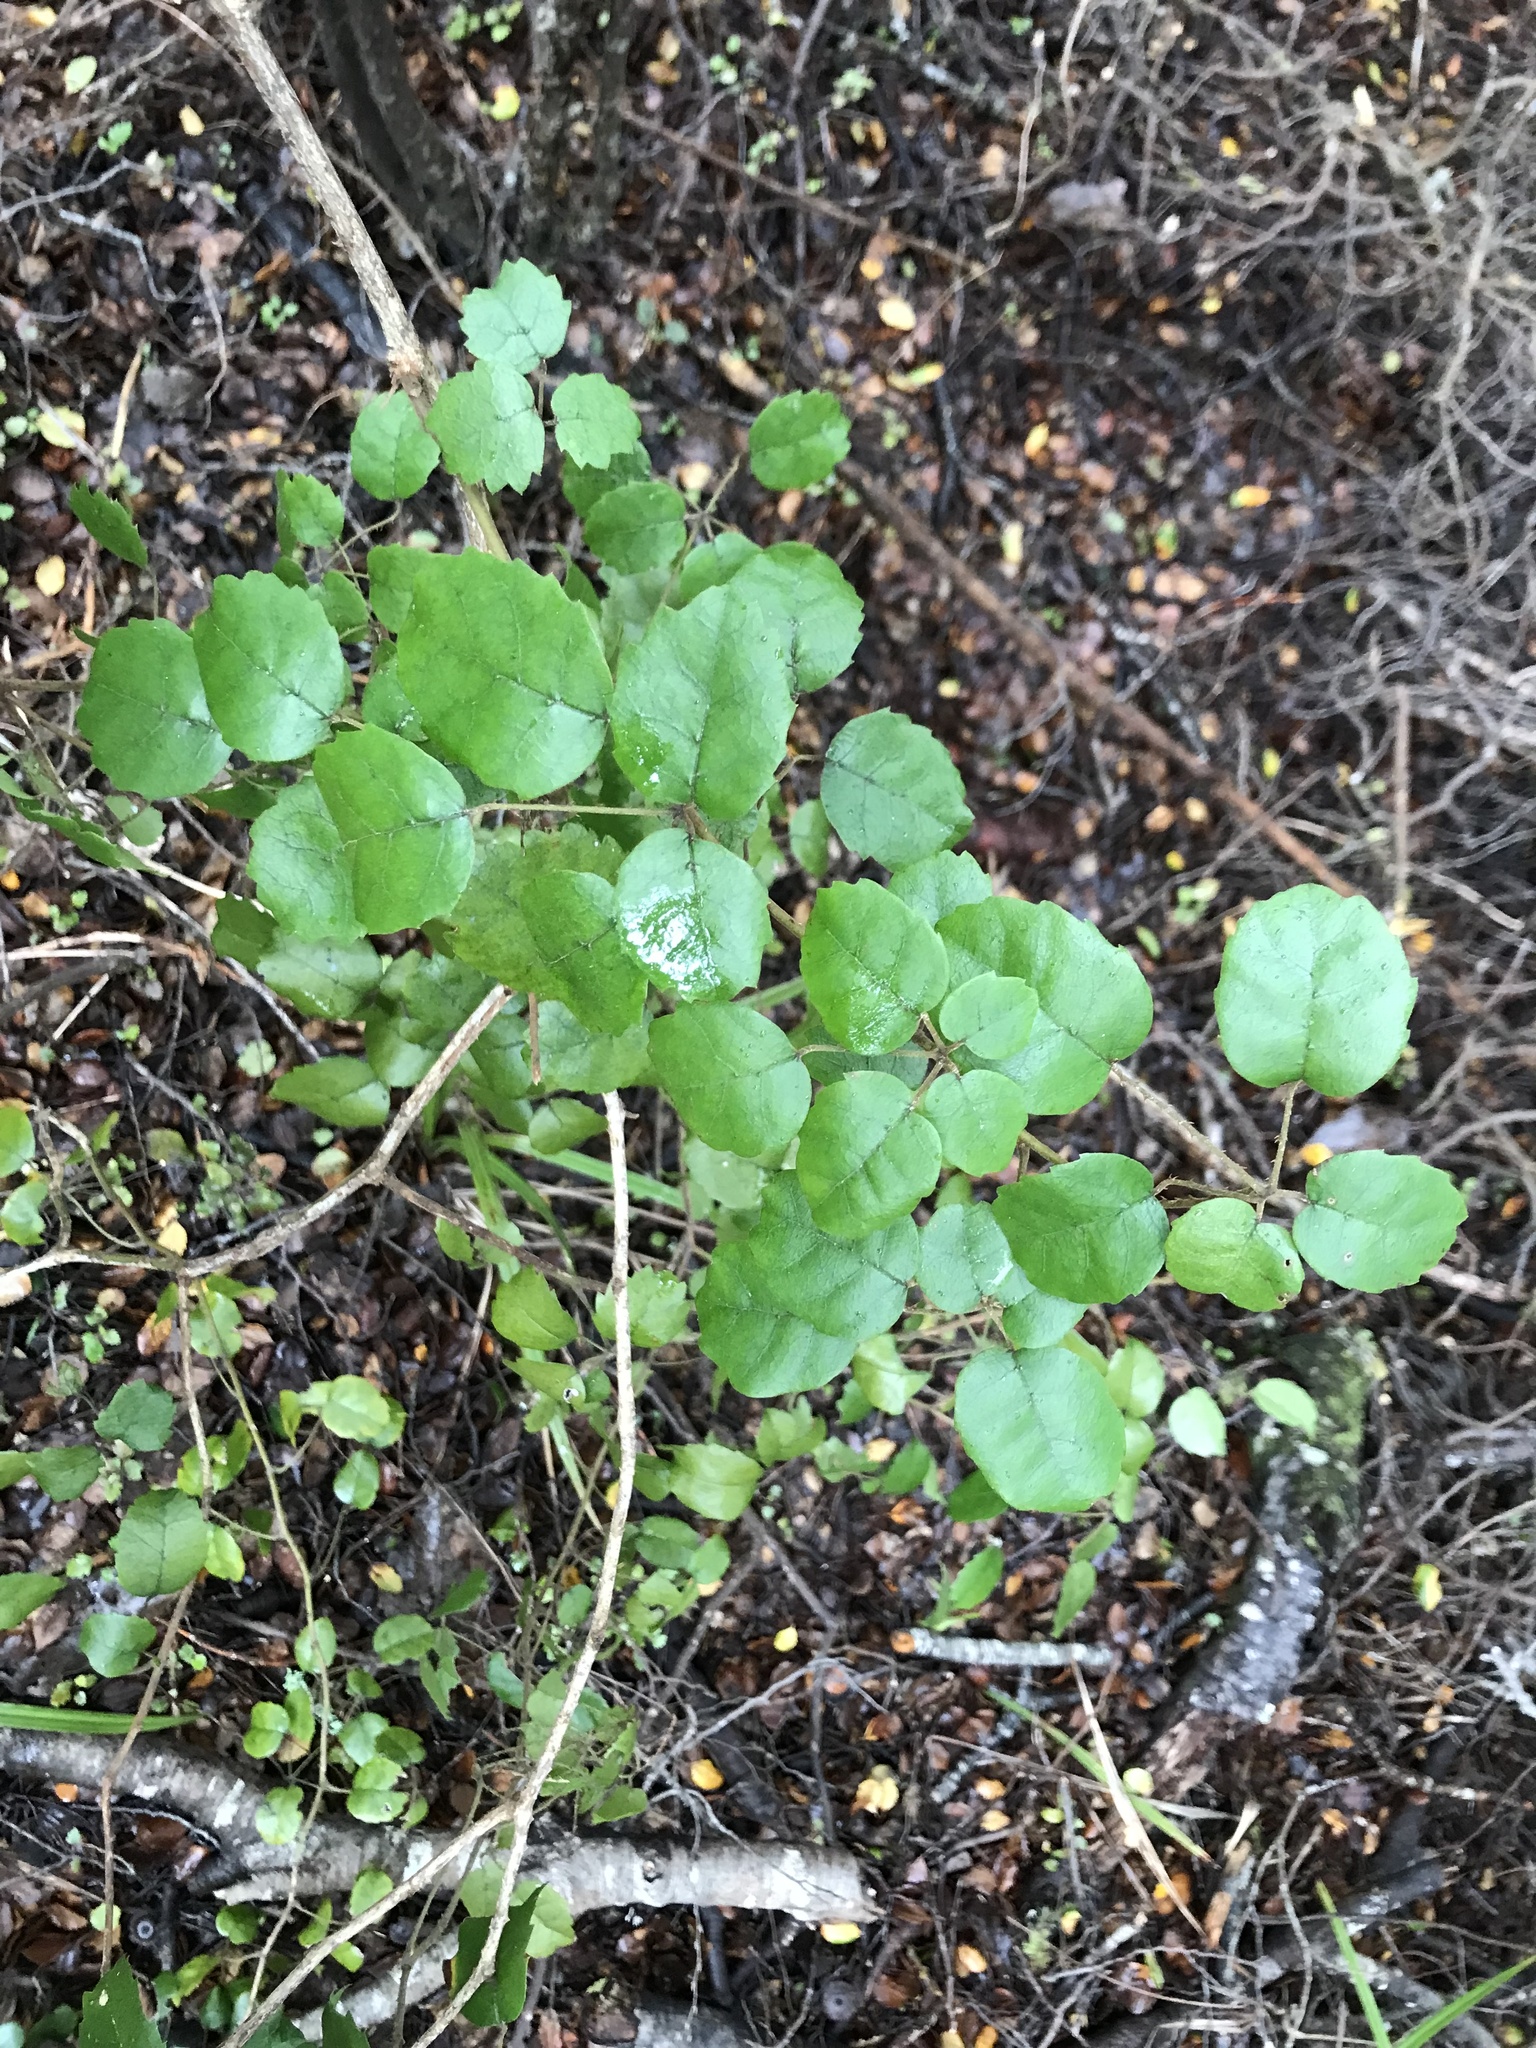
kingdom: Plantae
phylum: Tracheophyta
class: Magnoliopsida
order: Rosales
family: Rosaceae
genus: Rubus
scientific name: Rubus australis
